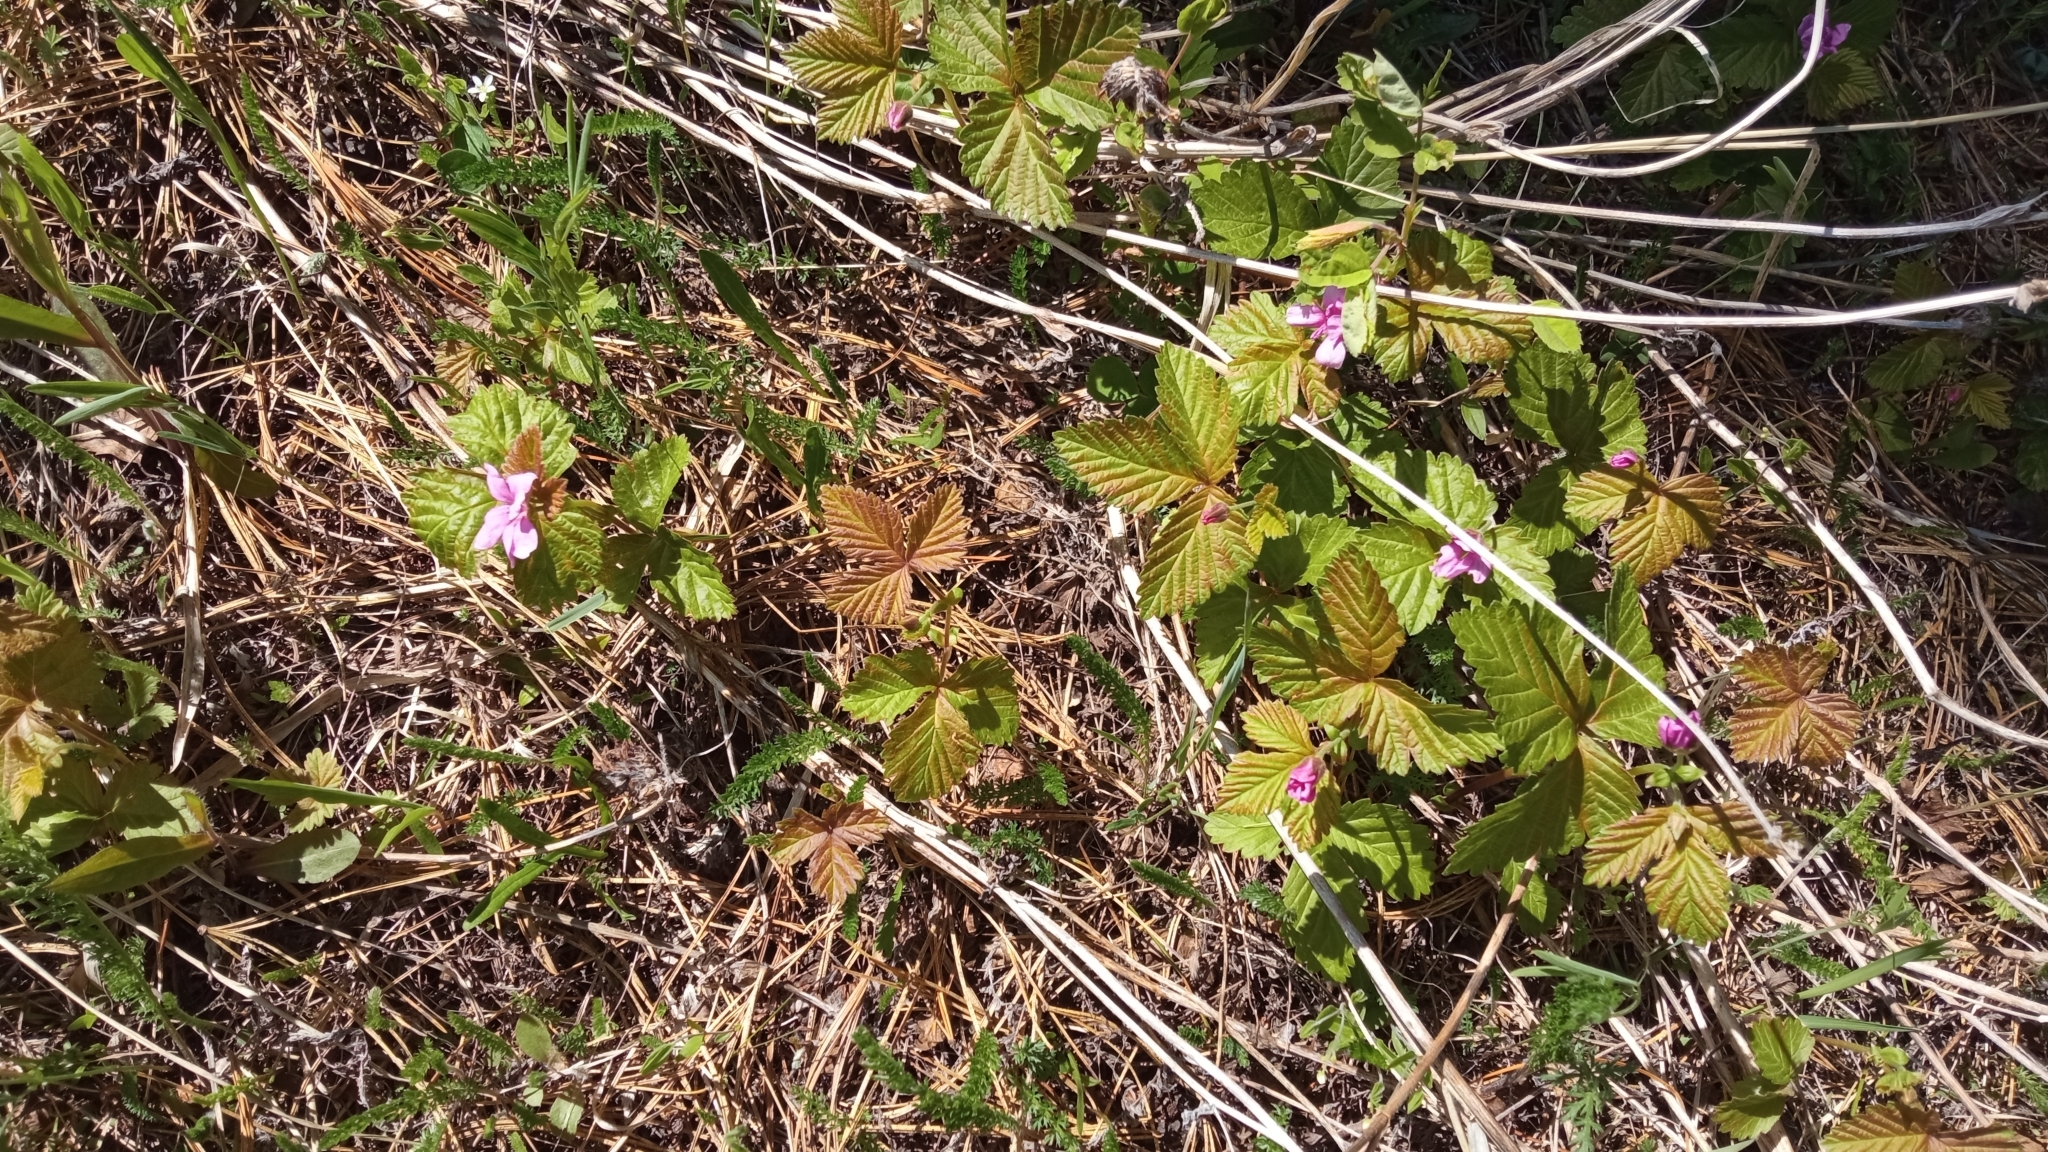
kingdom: Plantae
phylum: Tracheophyta
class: Magnoliopsida
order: Rosales
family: Rosaceae
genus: Rubus
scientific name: Rubus arcticus
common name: Arctic bramble
